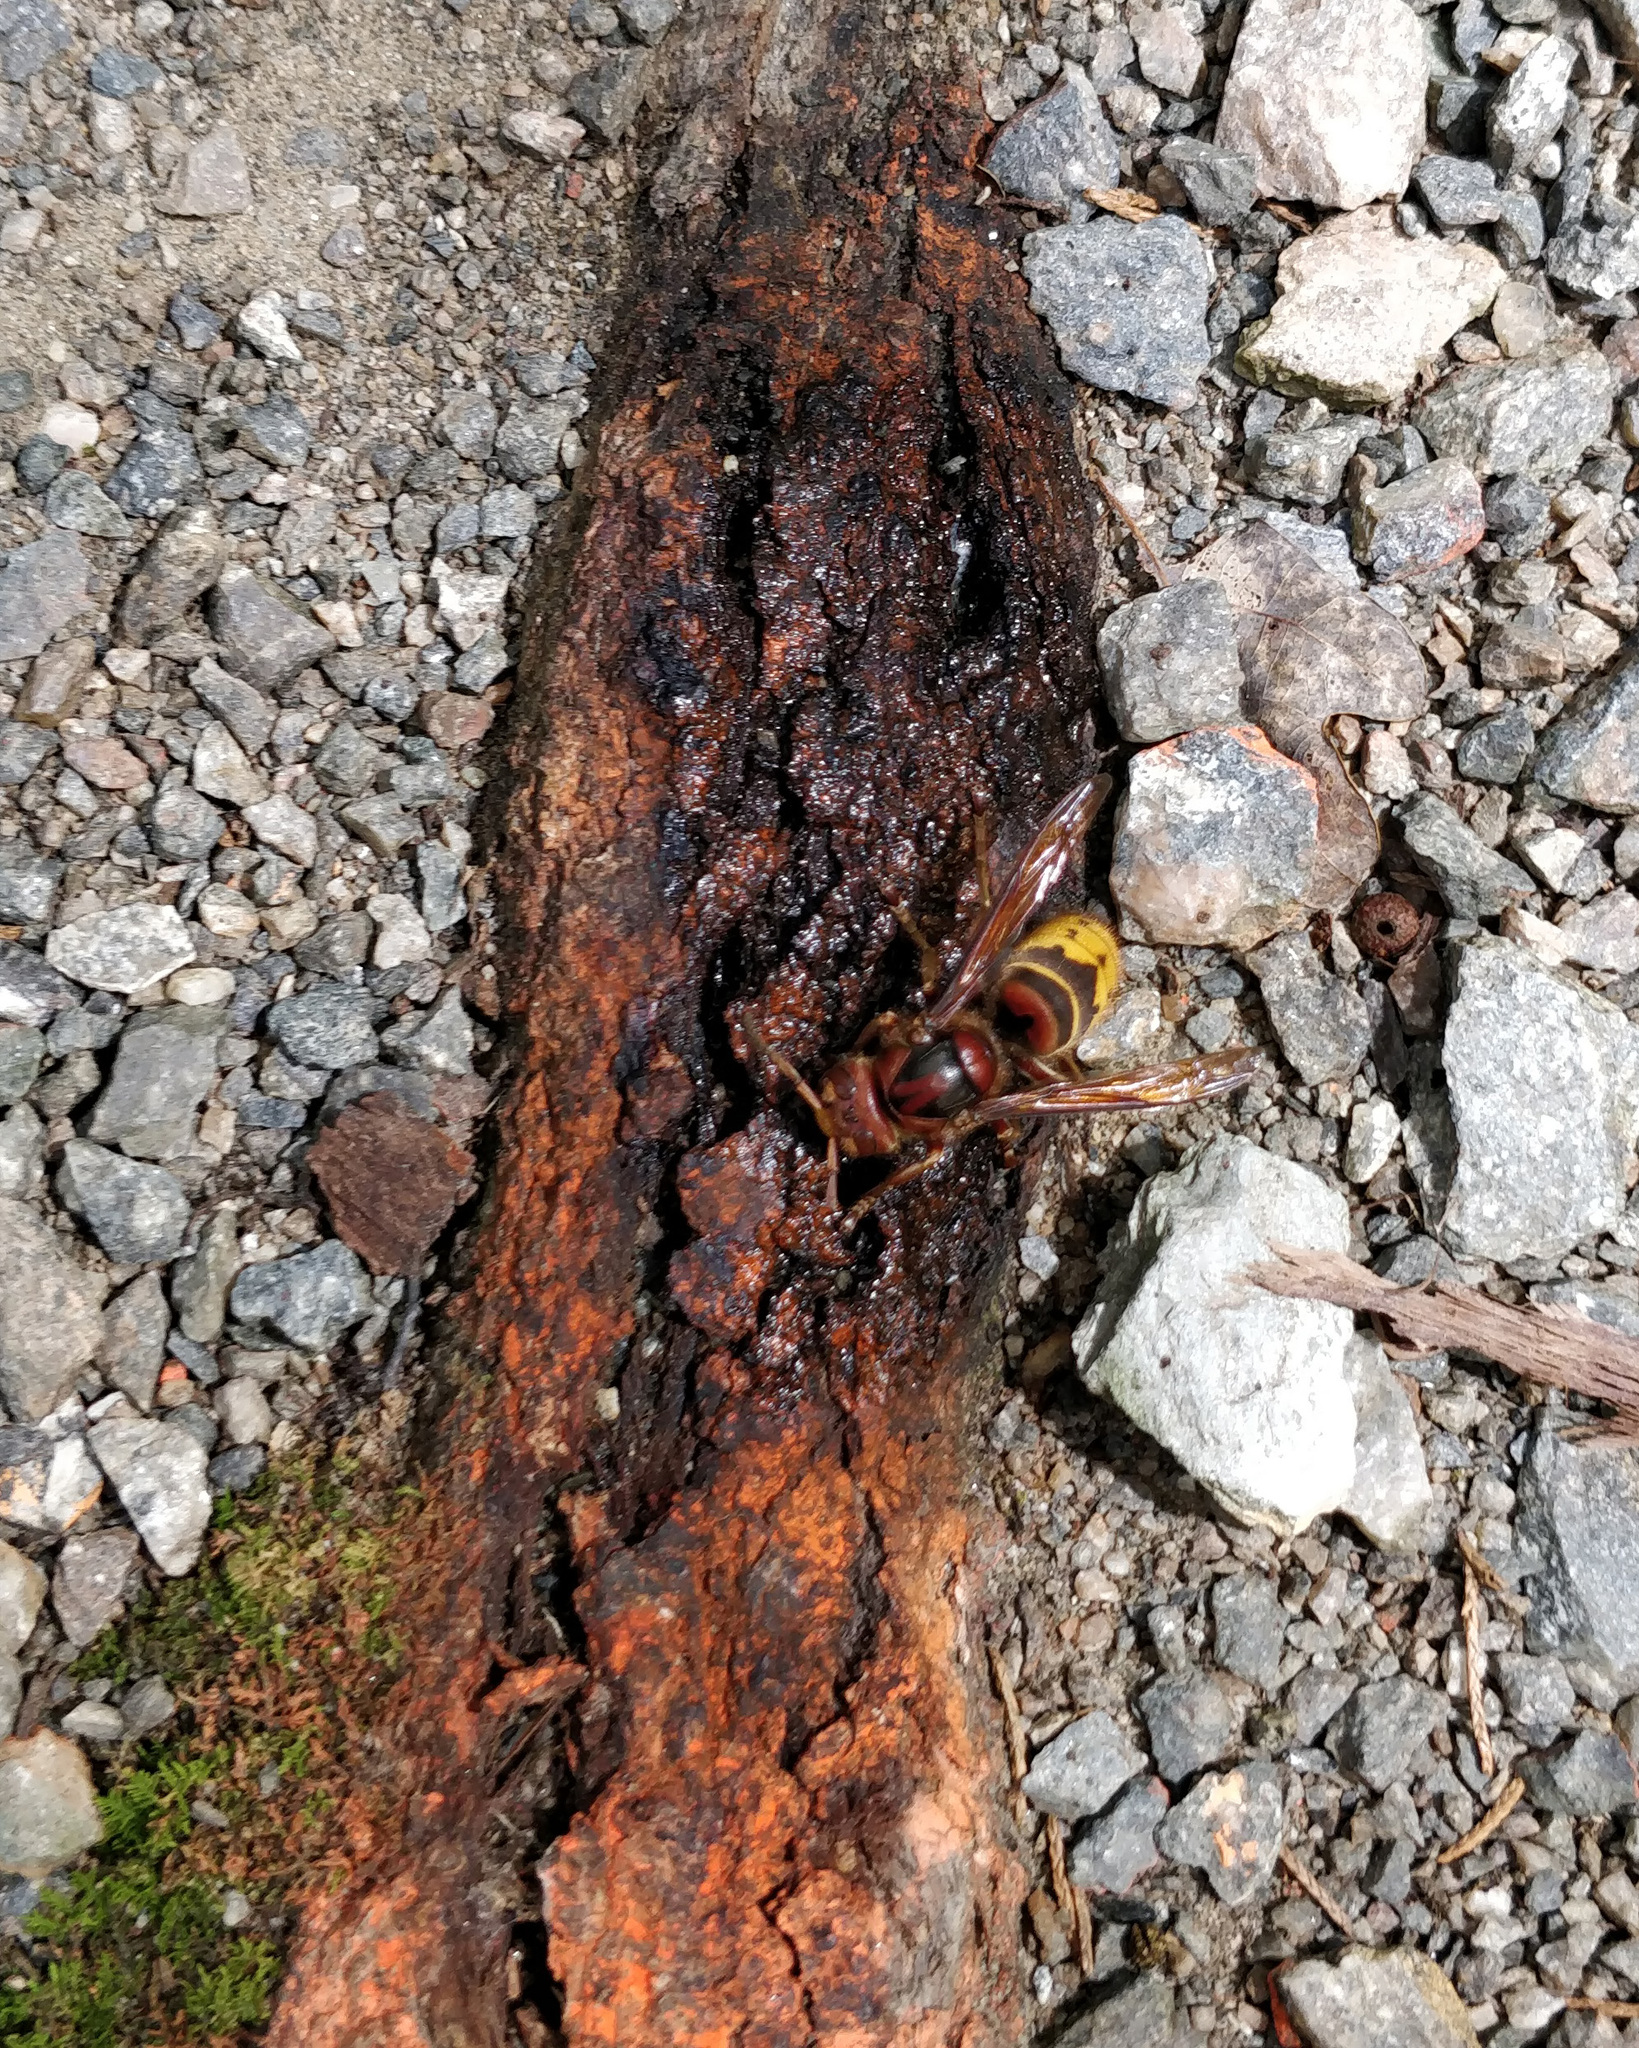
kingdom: Animalia
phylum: Arthropoda
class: Insecta
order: Hymenoptera
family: Vespidae
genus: Vespa
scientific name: Vespa crabro
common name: Hornet
